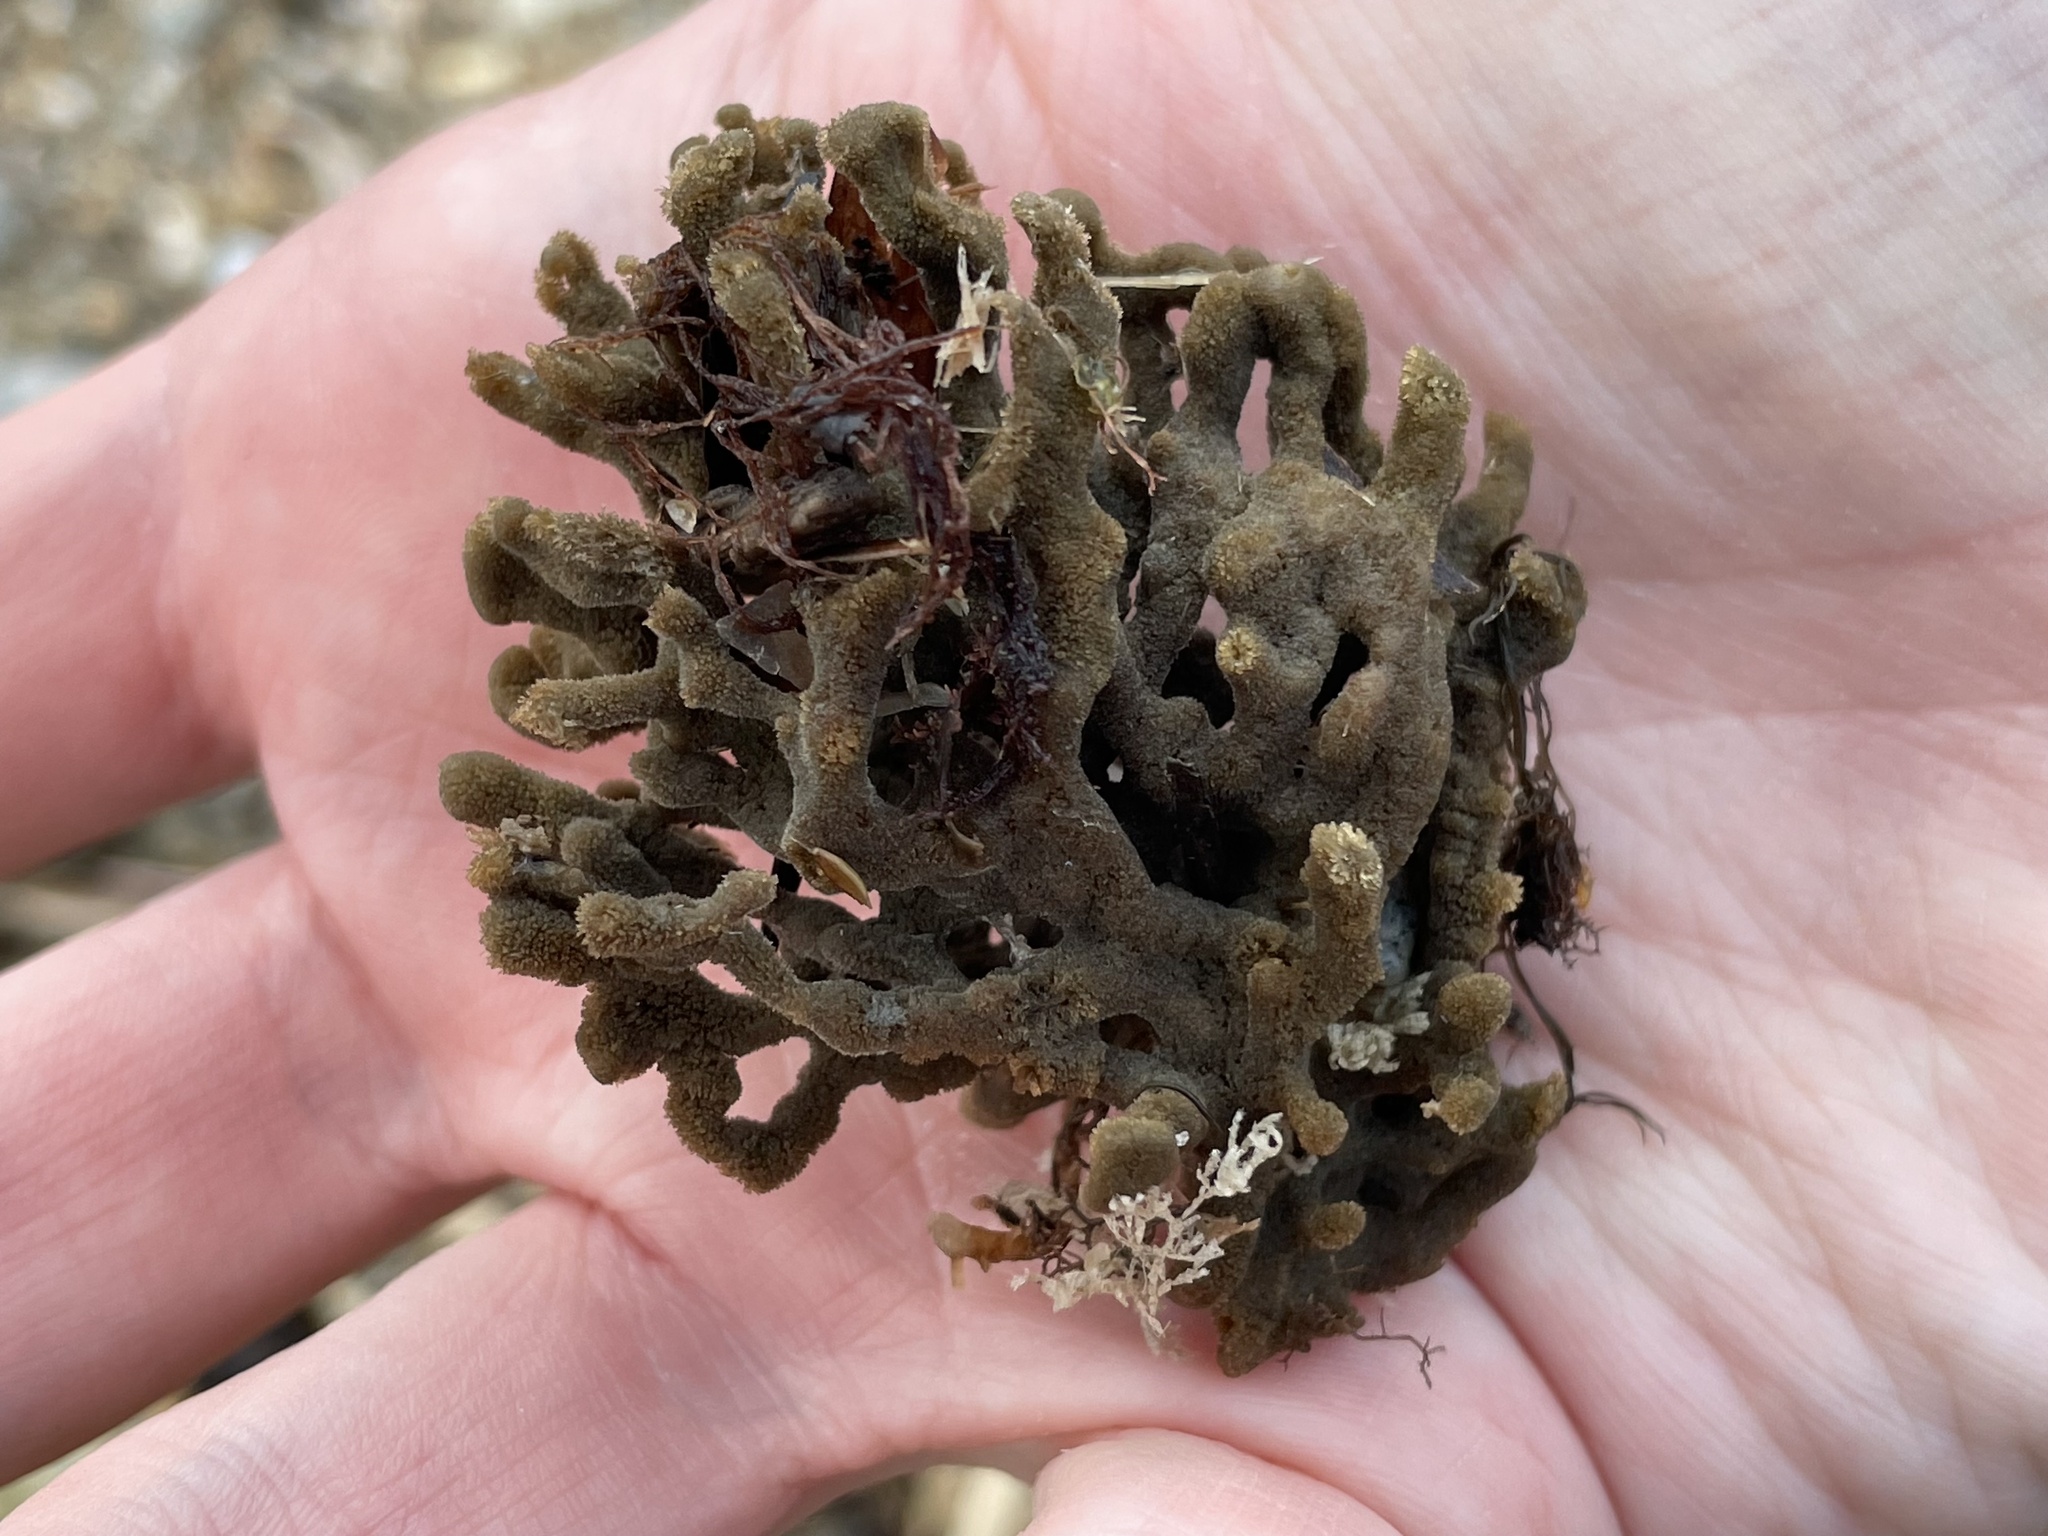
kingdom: Animalia
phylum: Porifera
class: Demospongiae
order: Poecilosclerida
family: Microcionidae
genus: Clathria
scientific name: Clathria prolifera
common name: Red beard sponge
